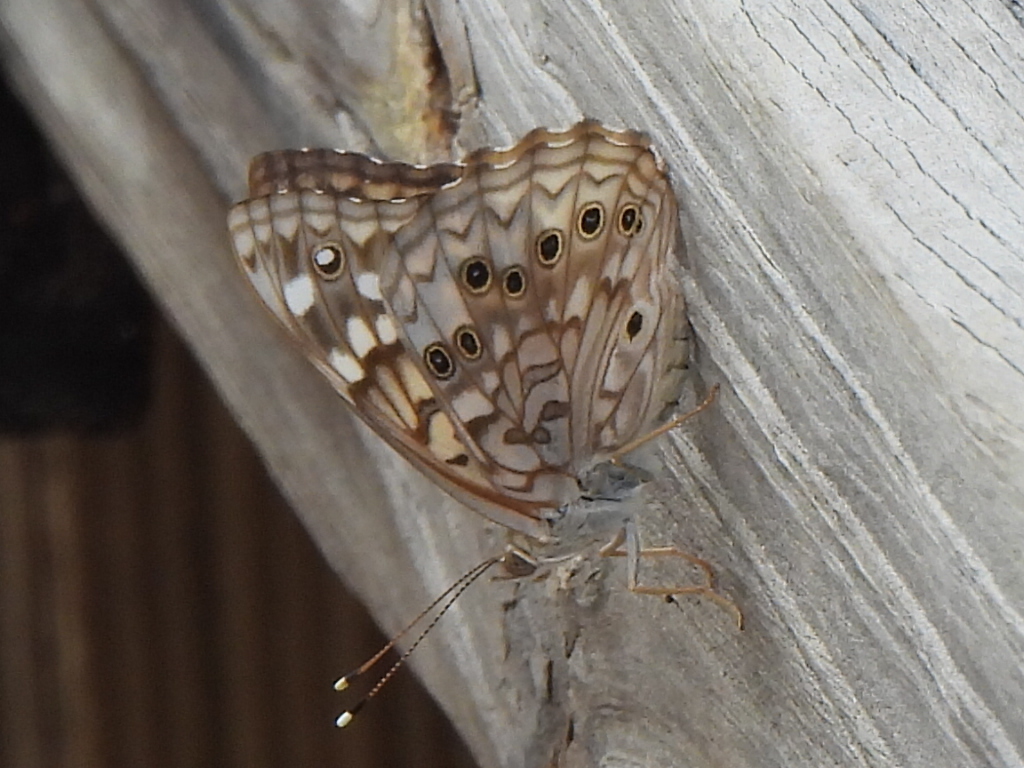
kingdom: Animalia
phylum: Arthropoda
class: Insecta
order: Lepidoptera
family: Nymphalidae
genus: Asterocampa
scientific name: Asterocampa celtis
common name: Hackberry emperor
